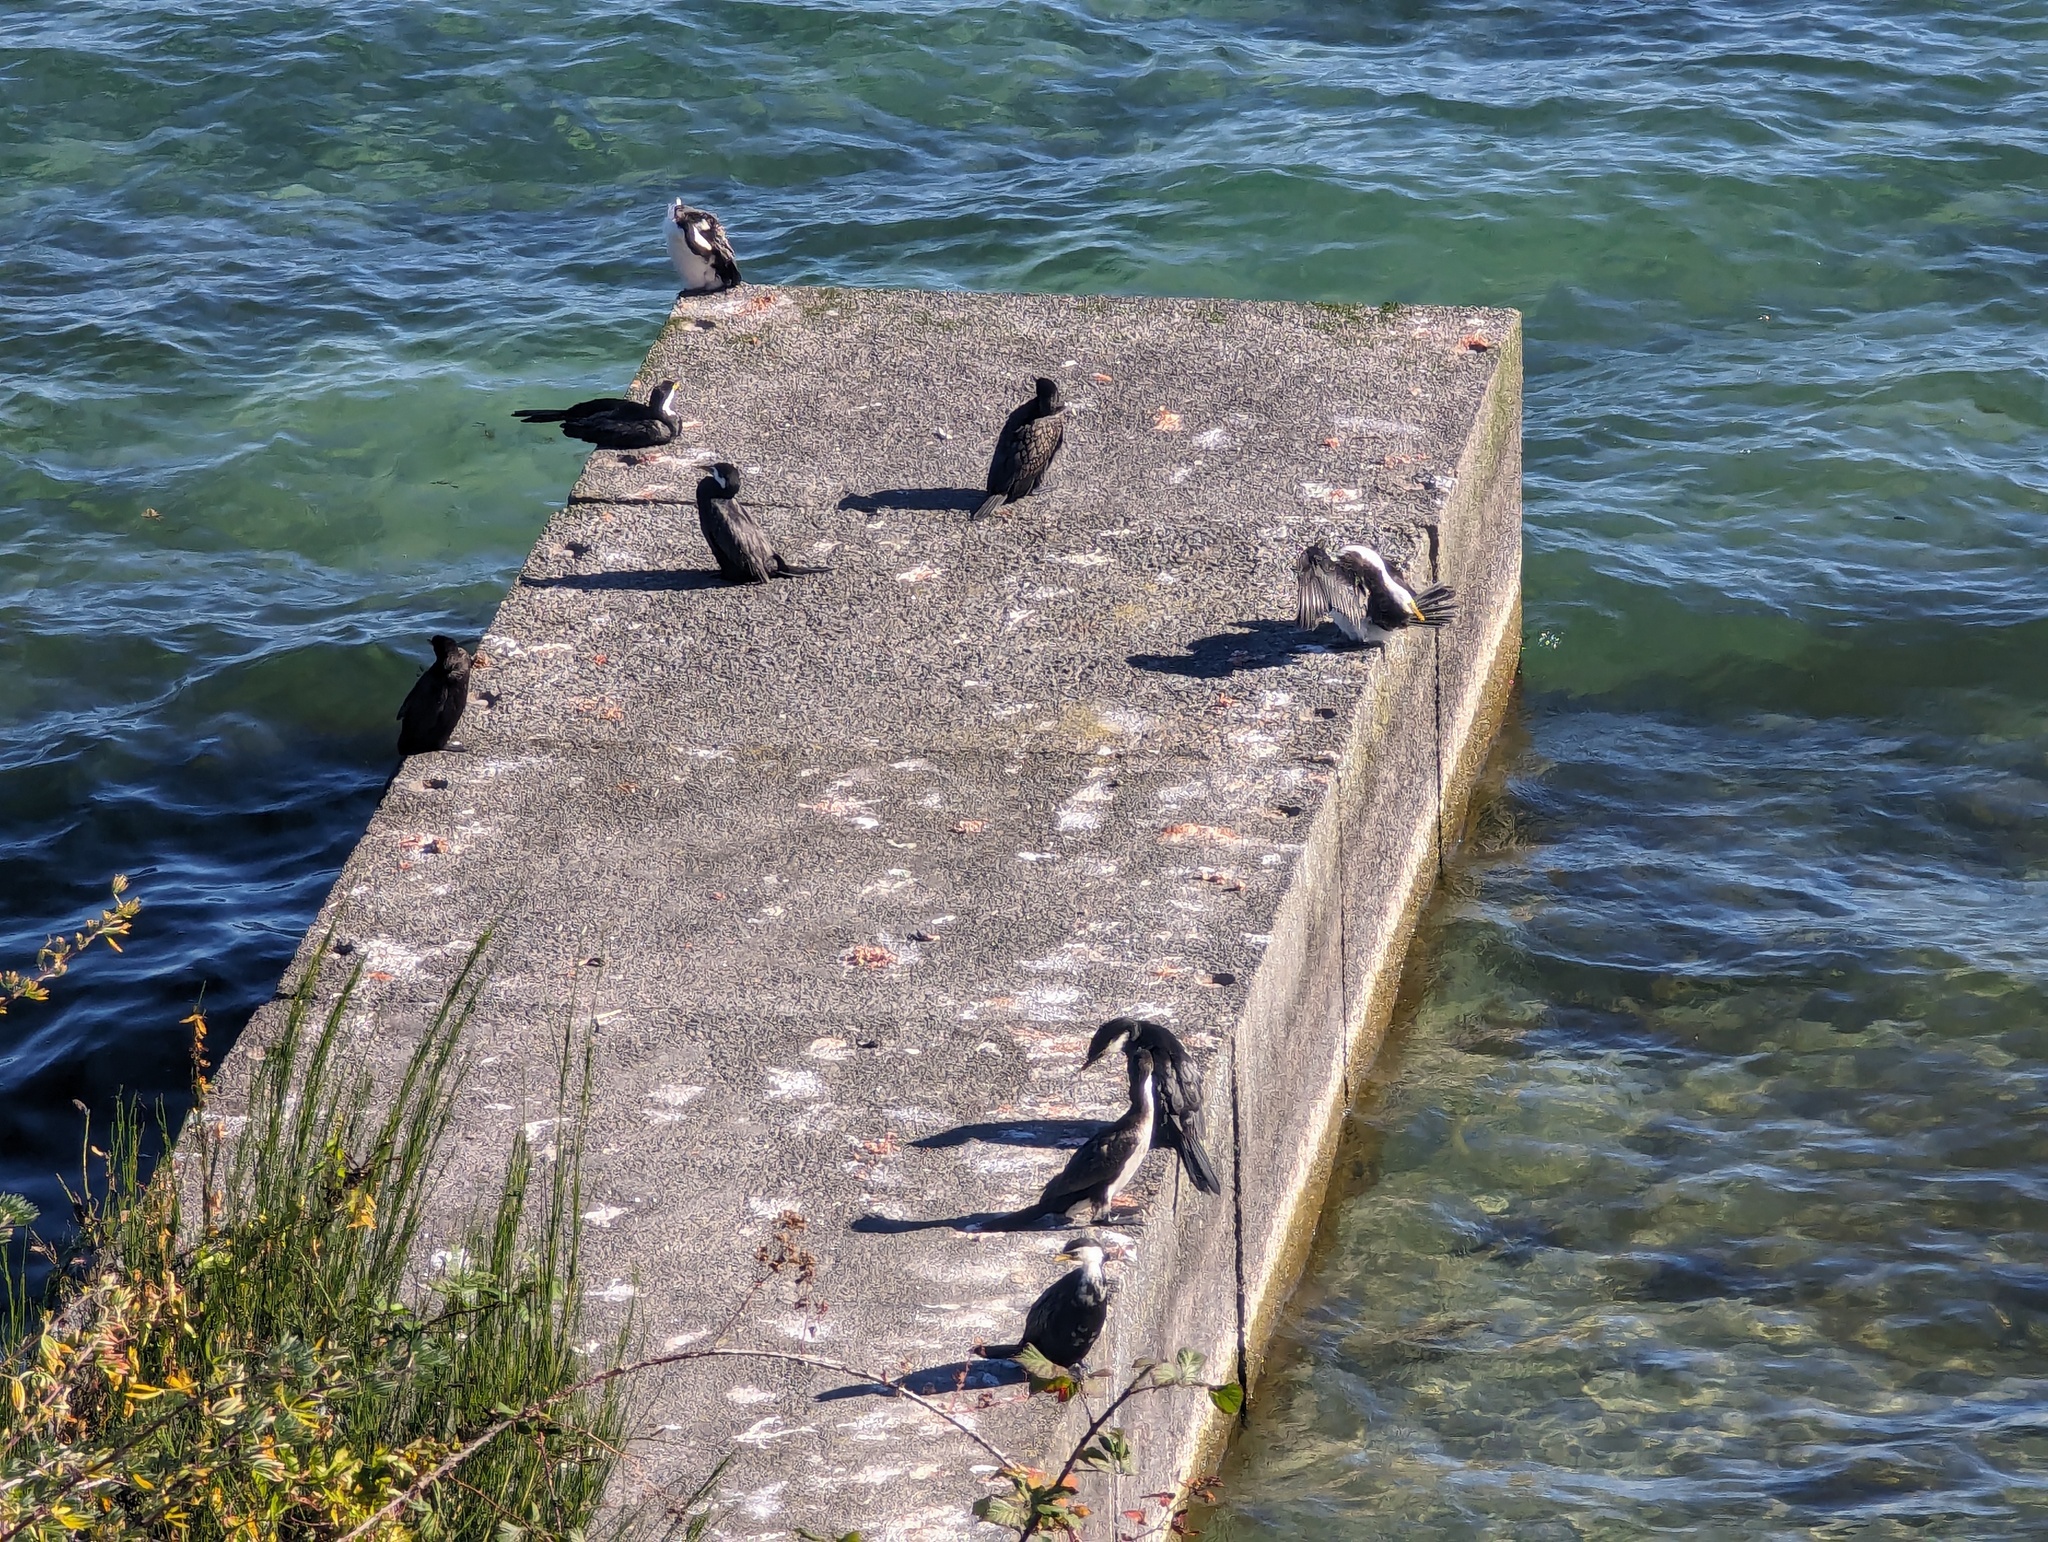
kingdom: Animalia
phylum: Chordata
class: Aves
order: Suliformes
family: Phalacrocoracidae
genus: Microcarbo
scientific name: Microcarbo melanoleucos
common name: Little pied cormorant
